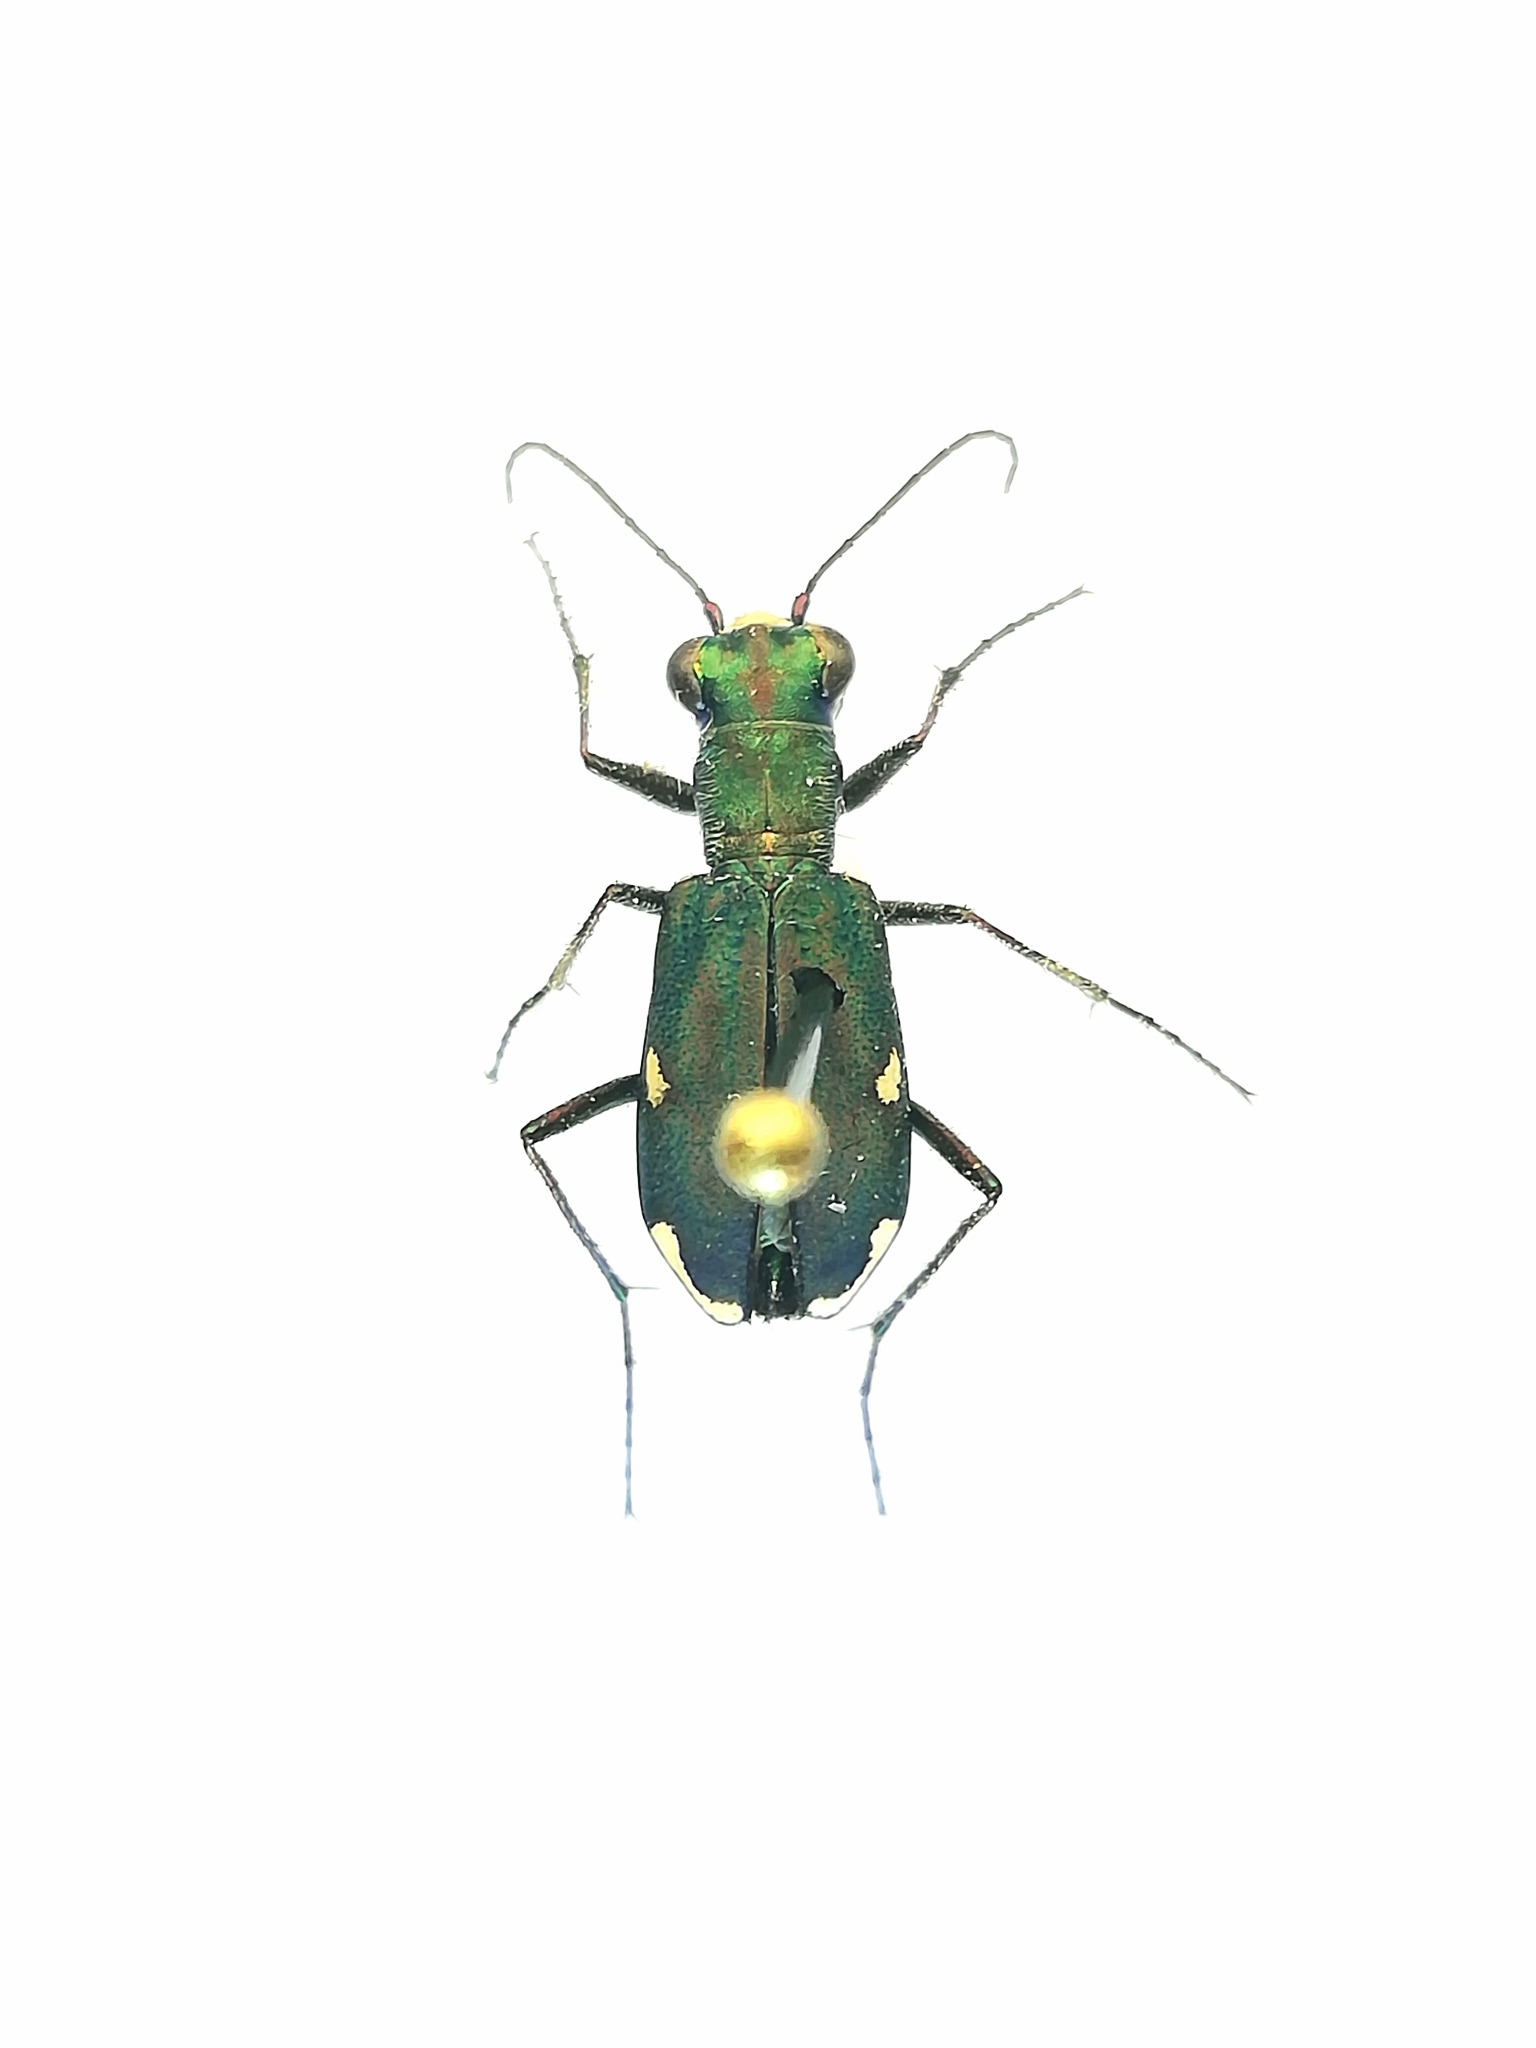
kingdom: Animalia
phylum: Arthropoda
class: Insecta
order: Coleoptera
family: Carabidae
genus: Cylindera
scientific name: Cylindera germanica
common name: Cliff tiger beetle
